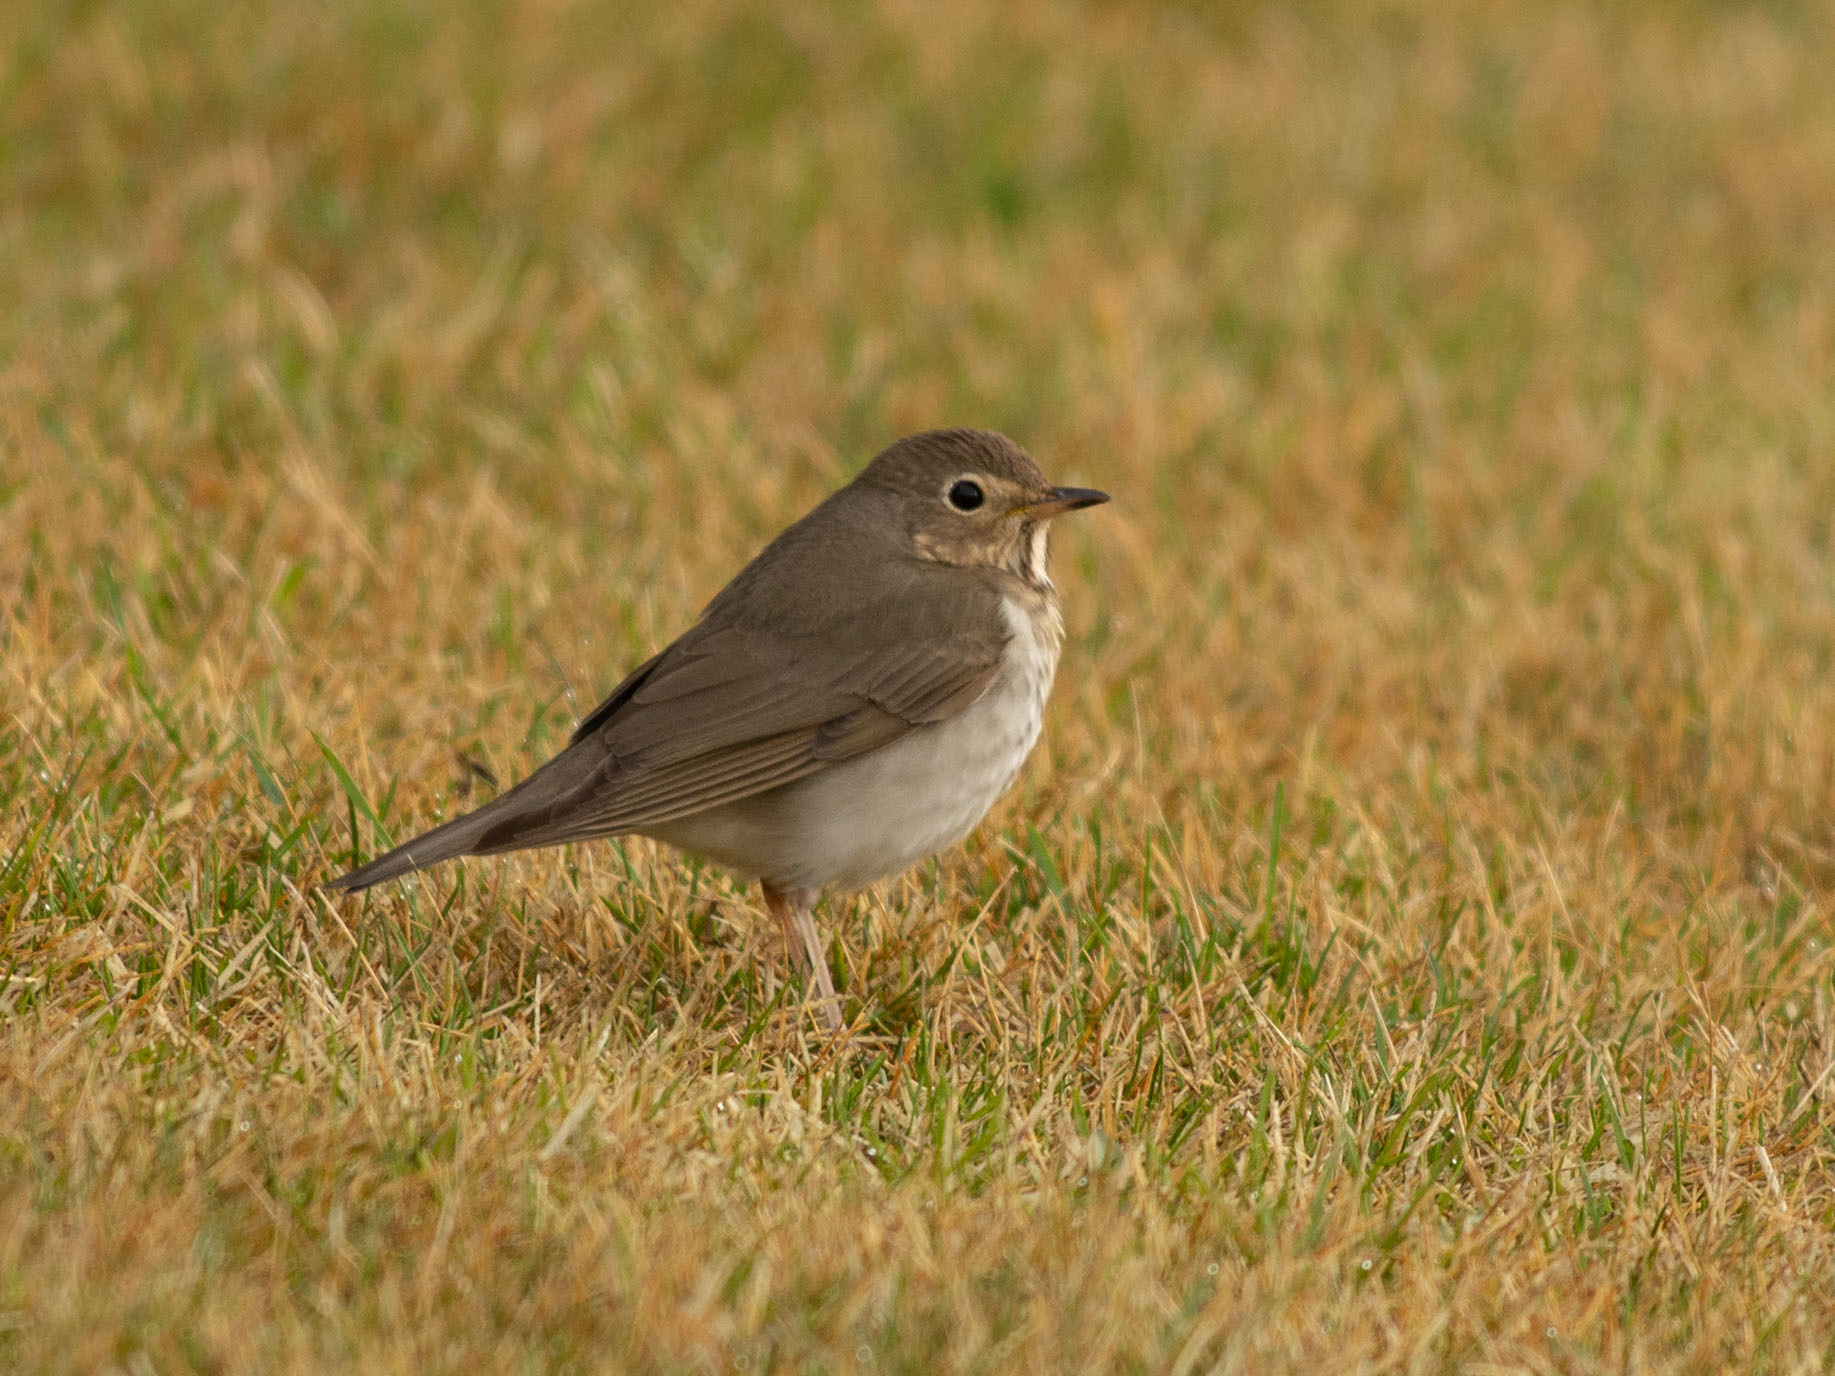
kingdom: Animalia
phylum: Chordata
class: Aves
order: Passeriformes
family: Turdidae
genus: Catharus
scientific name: Catharus ustulatus
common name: Swainson's thrush
